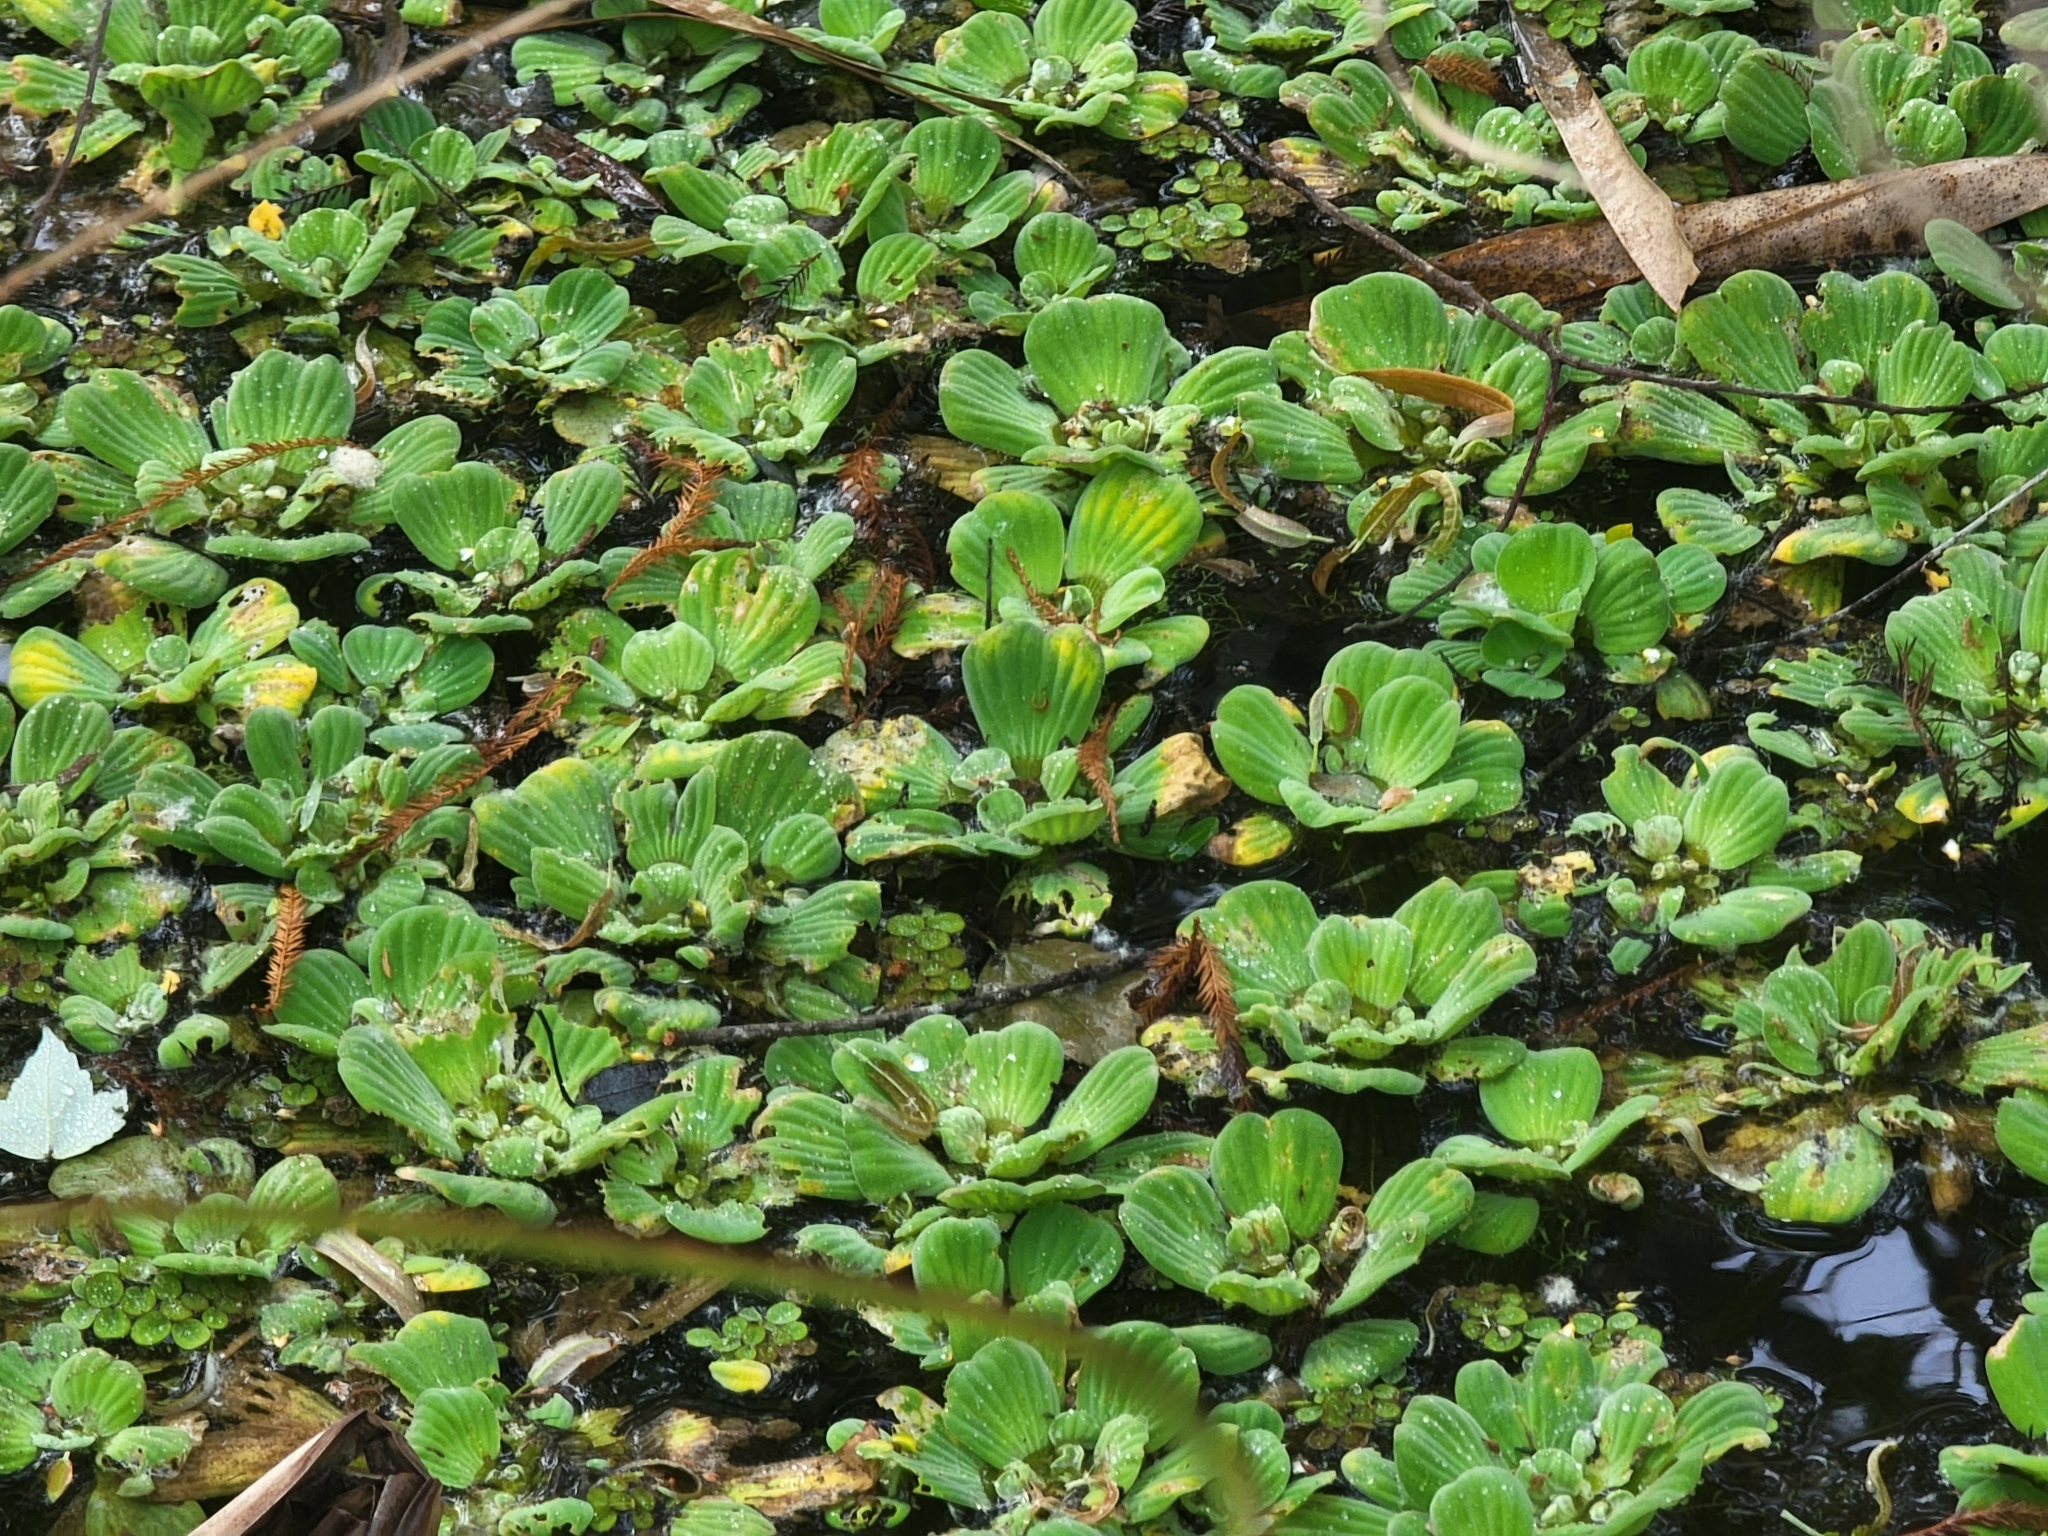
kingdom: Plantae
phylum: Tracheophyta
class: Liliopsida
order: Alismatales
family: Araceae
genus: Pistia
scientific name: Pistia stratiotes
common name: Water lettuce
